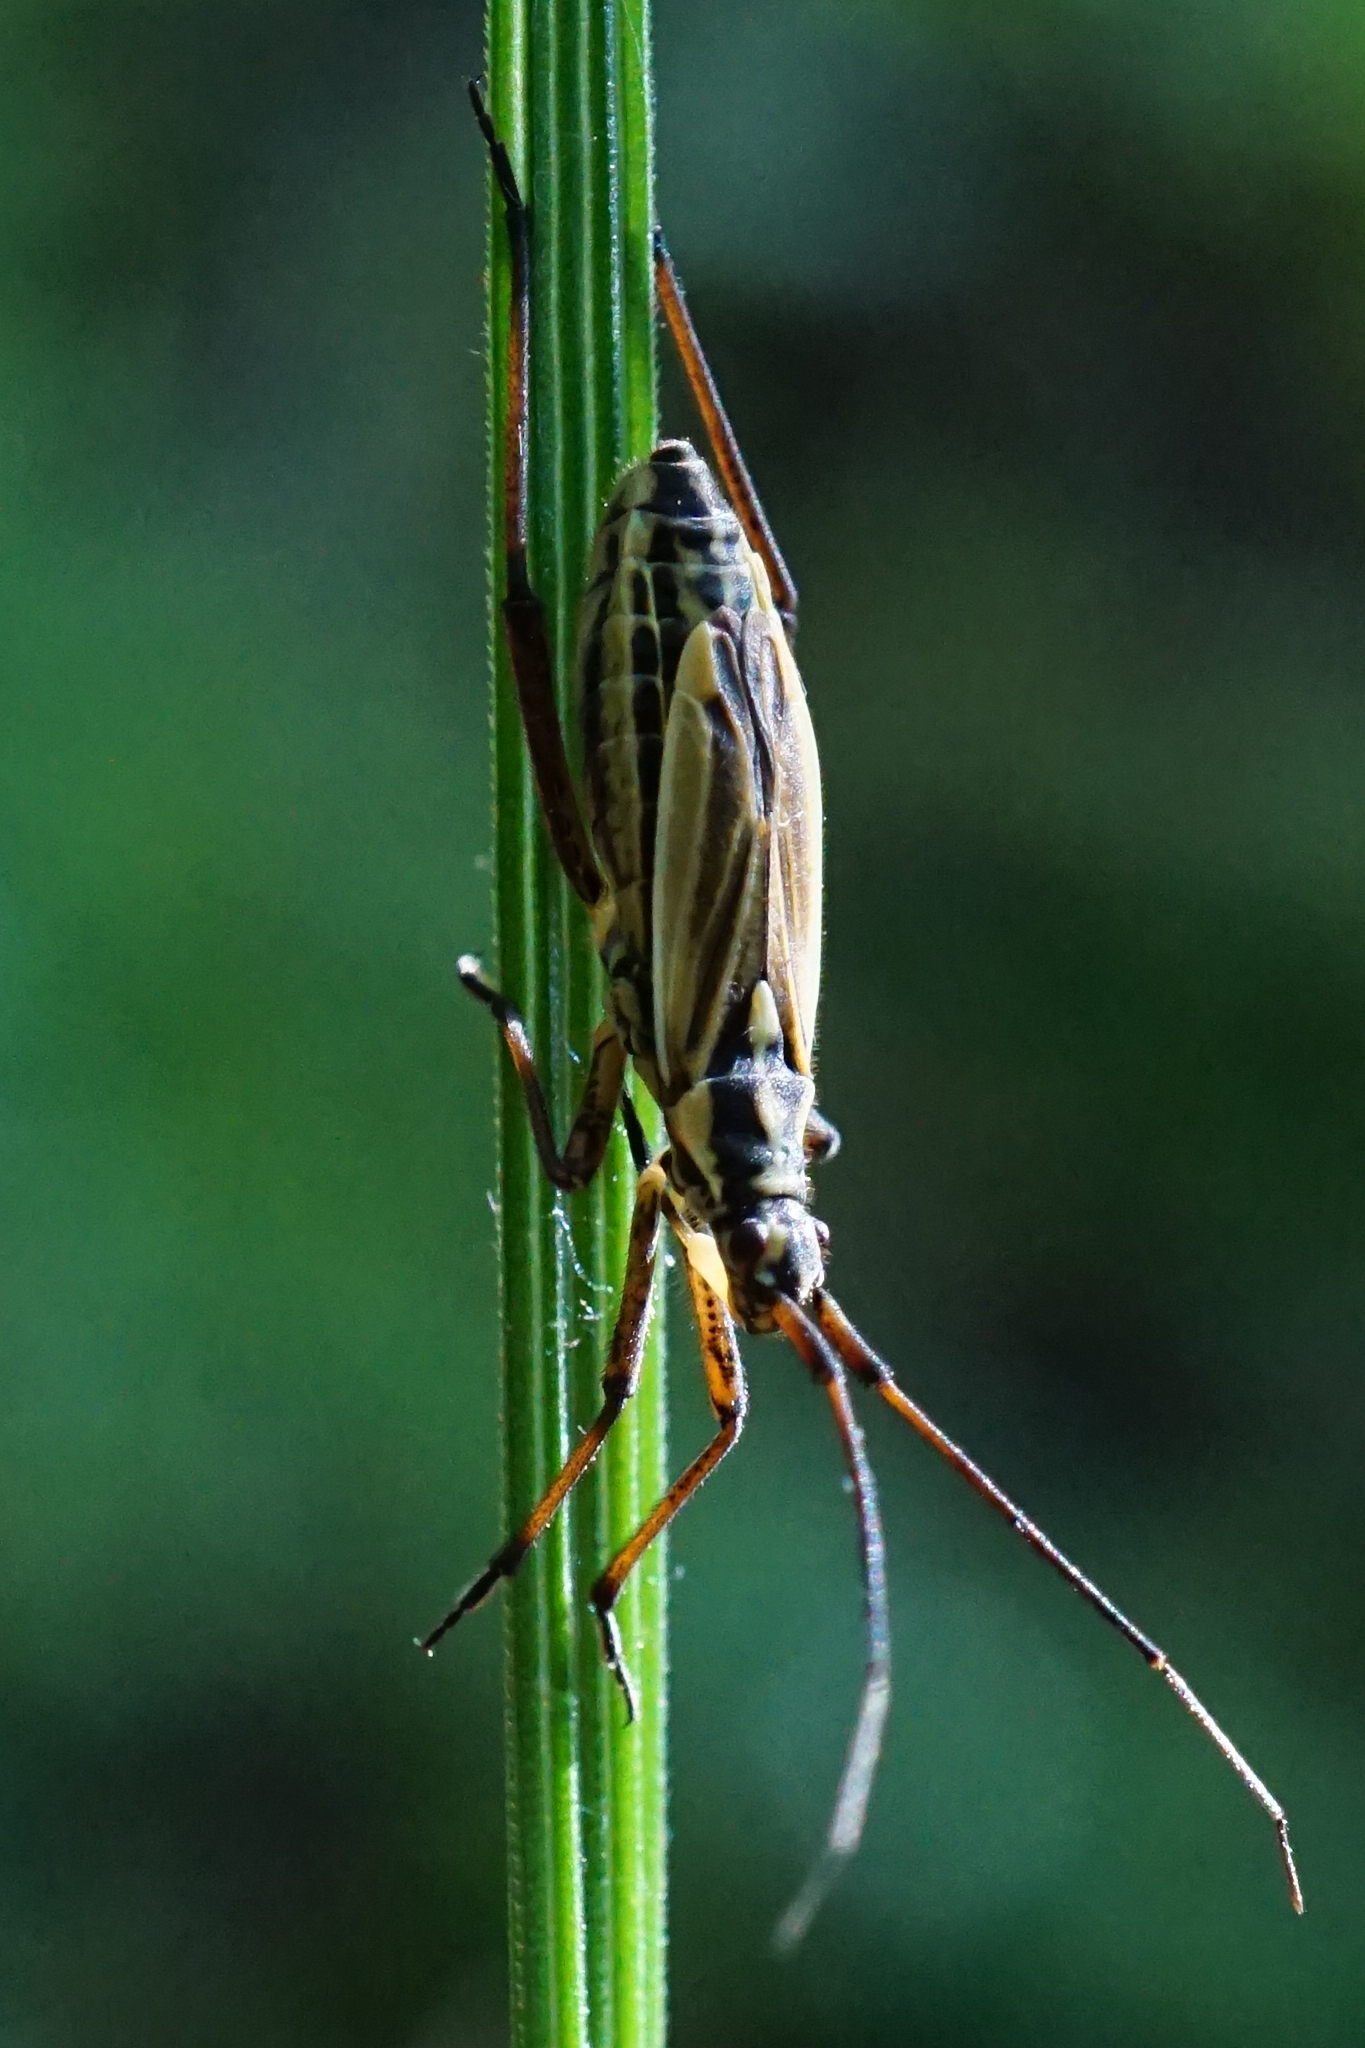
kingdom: Animalia
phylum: Arthropoda
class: Insecta
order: Hemiptera
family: Miridae
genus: Leptopterna
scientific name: Leptopterna dolabrata
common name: Meadow plant bug
